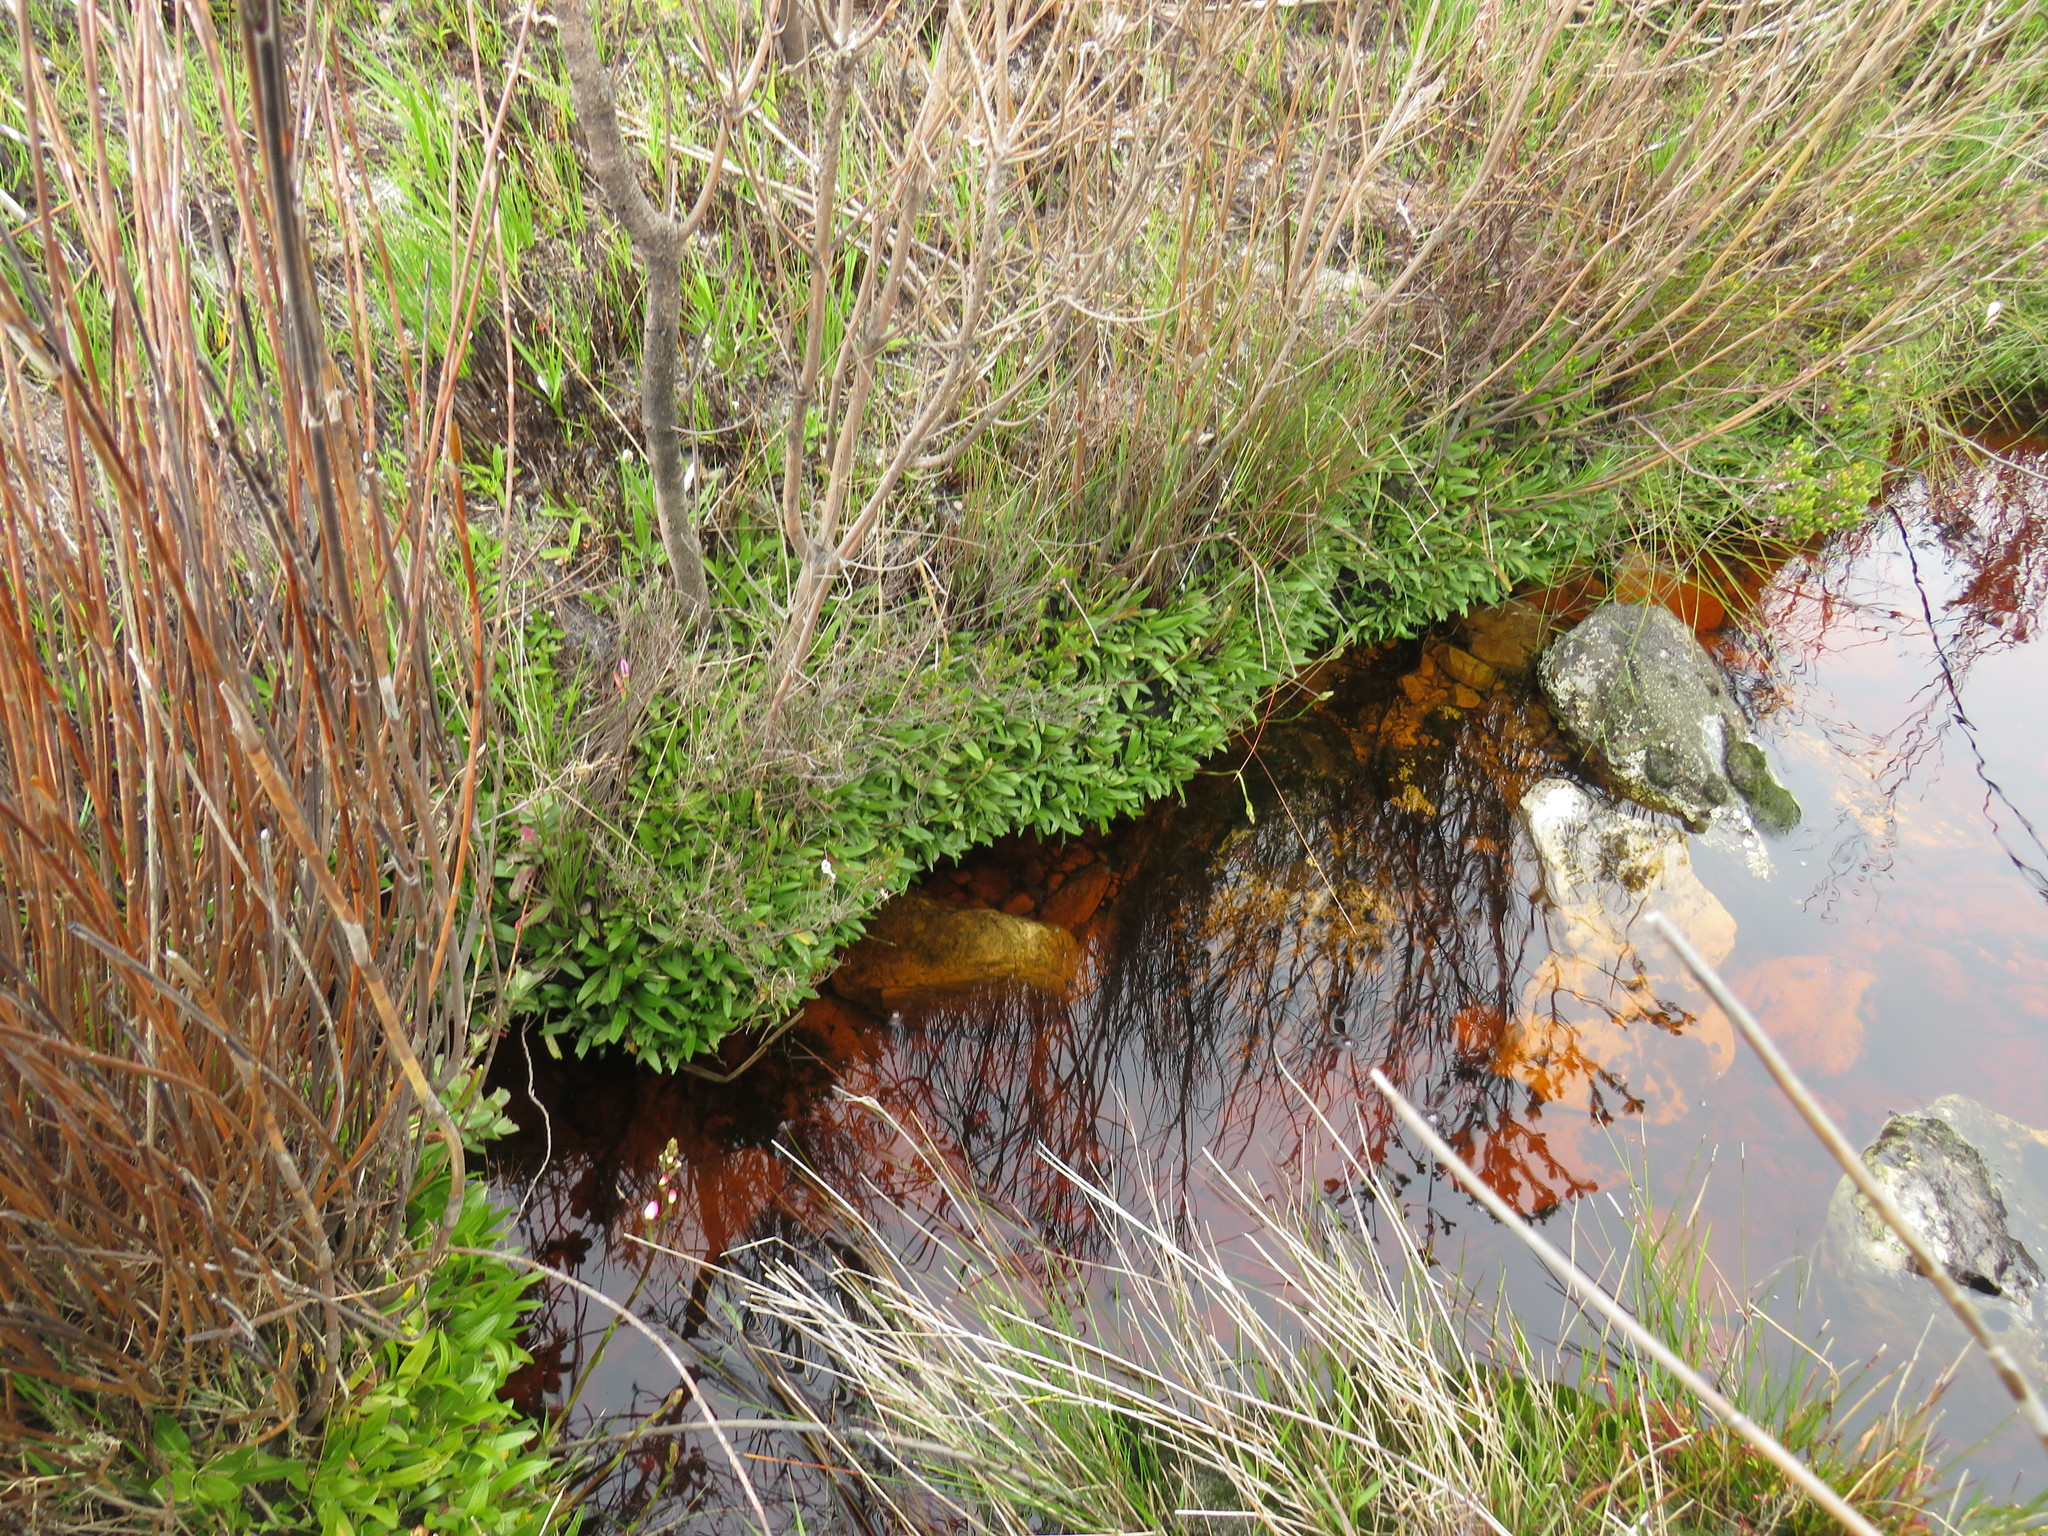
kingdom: Plantae
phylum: Tracheophyta
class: Liliopsida
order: Asparagales
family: Orchidaceae
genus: Disa
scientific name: Disa tripetaloides
